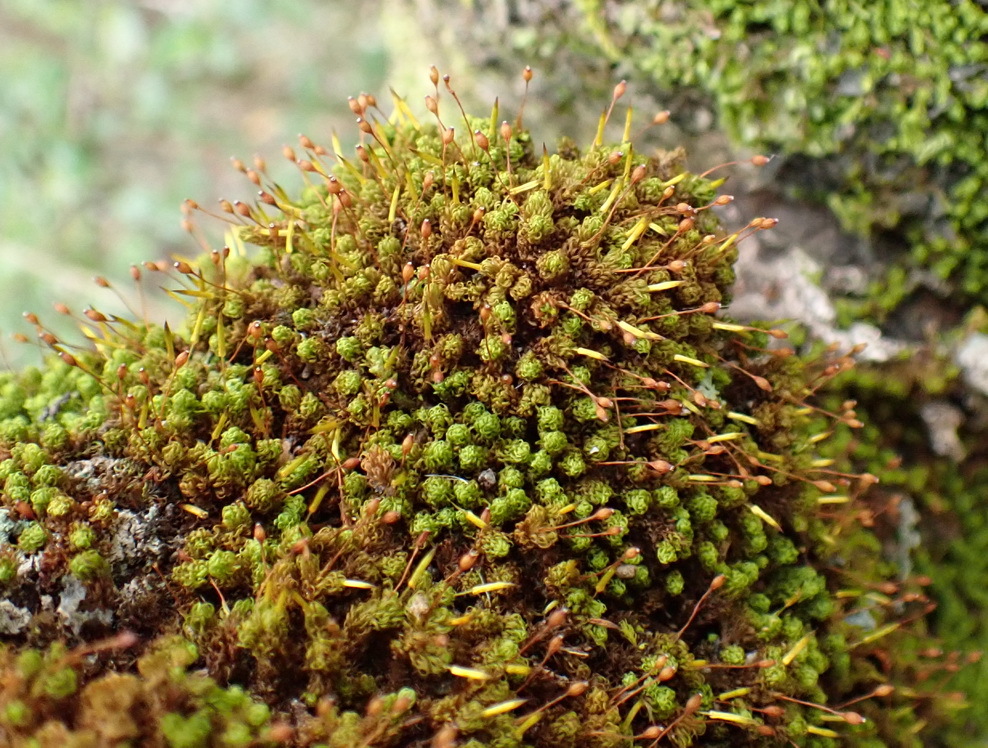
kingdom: Plantae
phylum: Bryophyta
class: Bryopsida
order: Orthotrichales
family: Orthotrichaceae
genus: Macromitrium
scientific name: Macromitrium microstomum
